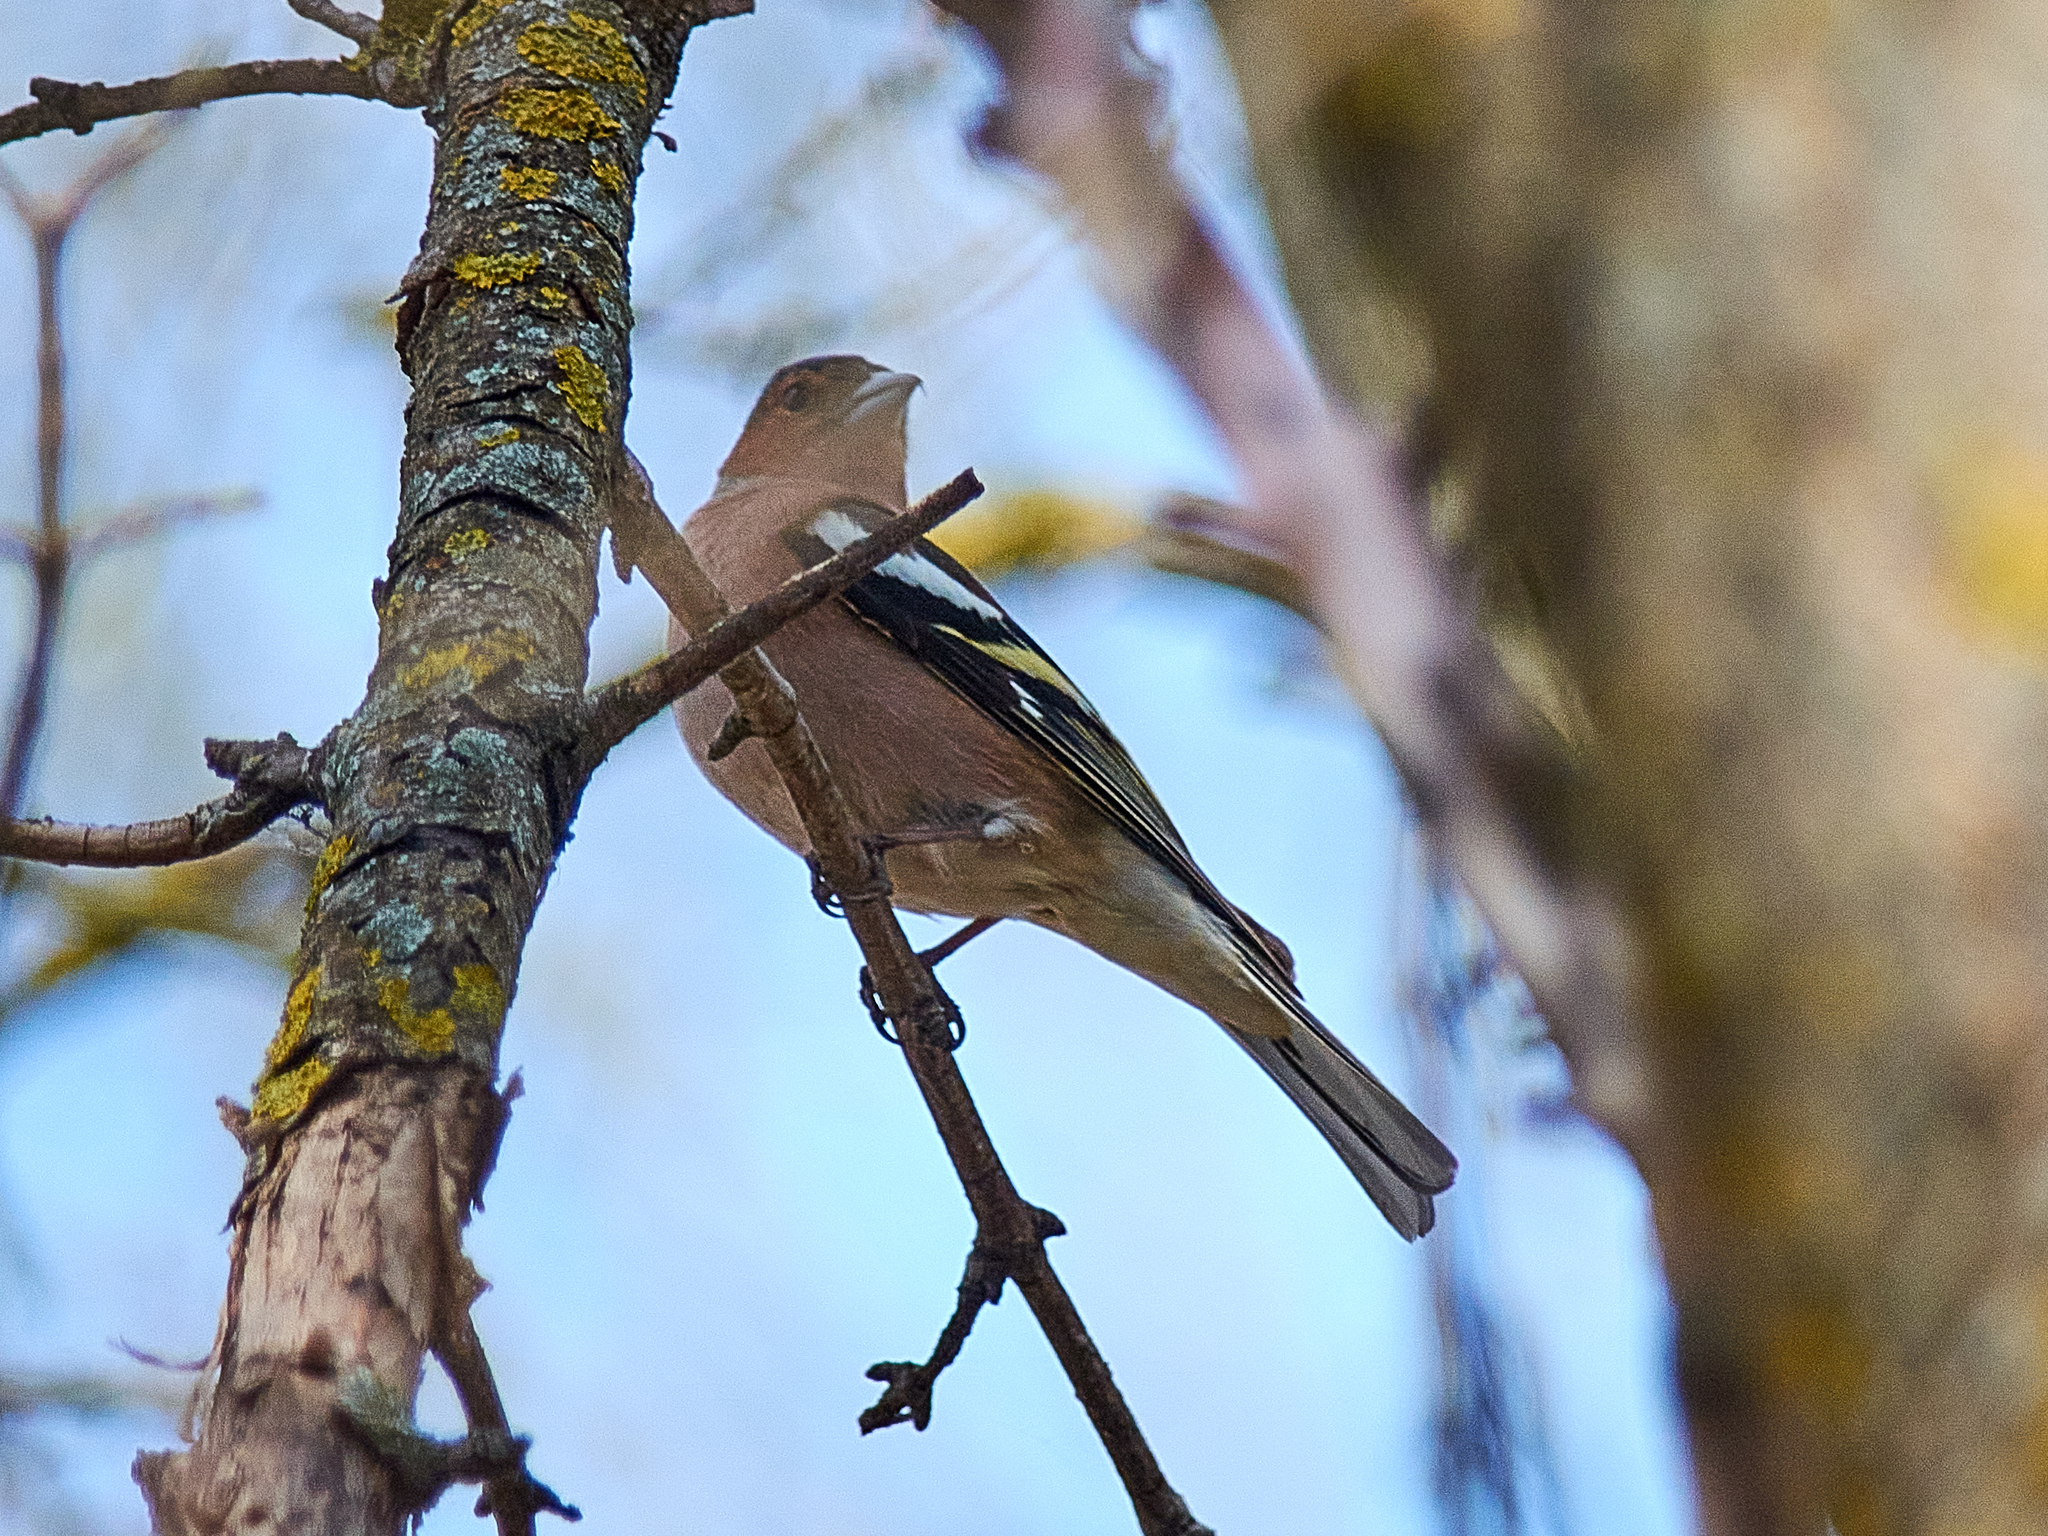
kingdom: Animalia
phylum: Chordata
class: Aves
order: Passeriformes
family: Fringillidae
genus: Fringilla
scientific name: Fringilla coelebs
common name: Common chaffinch
